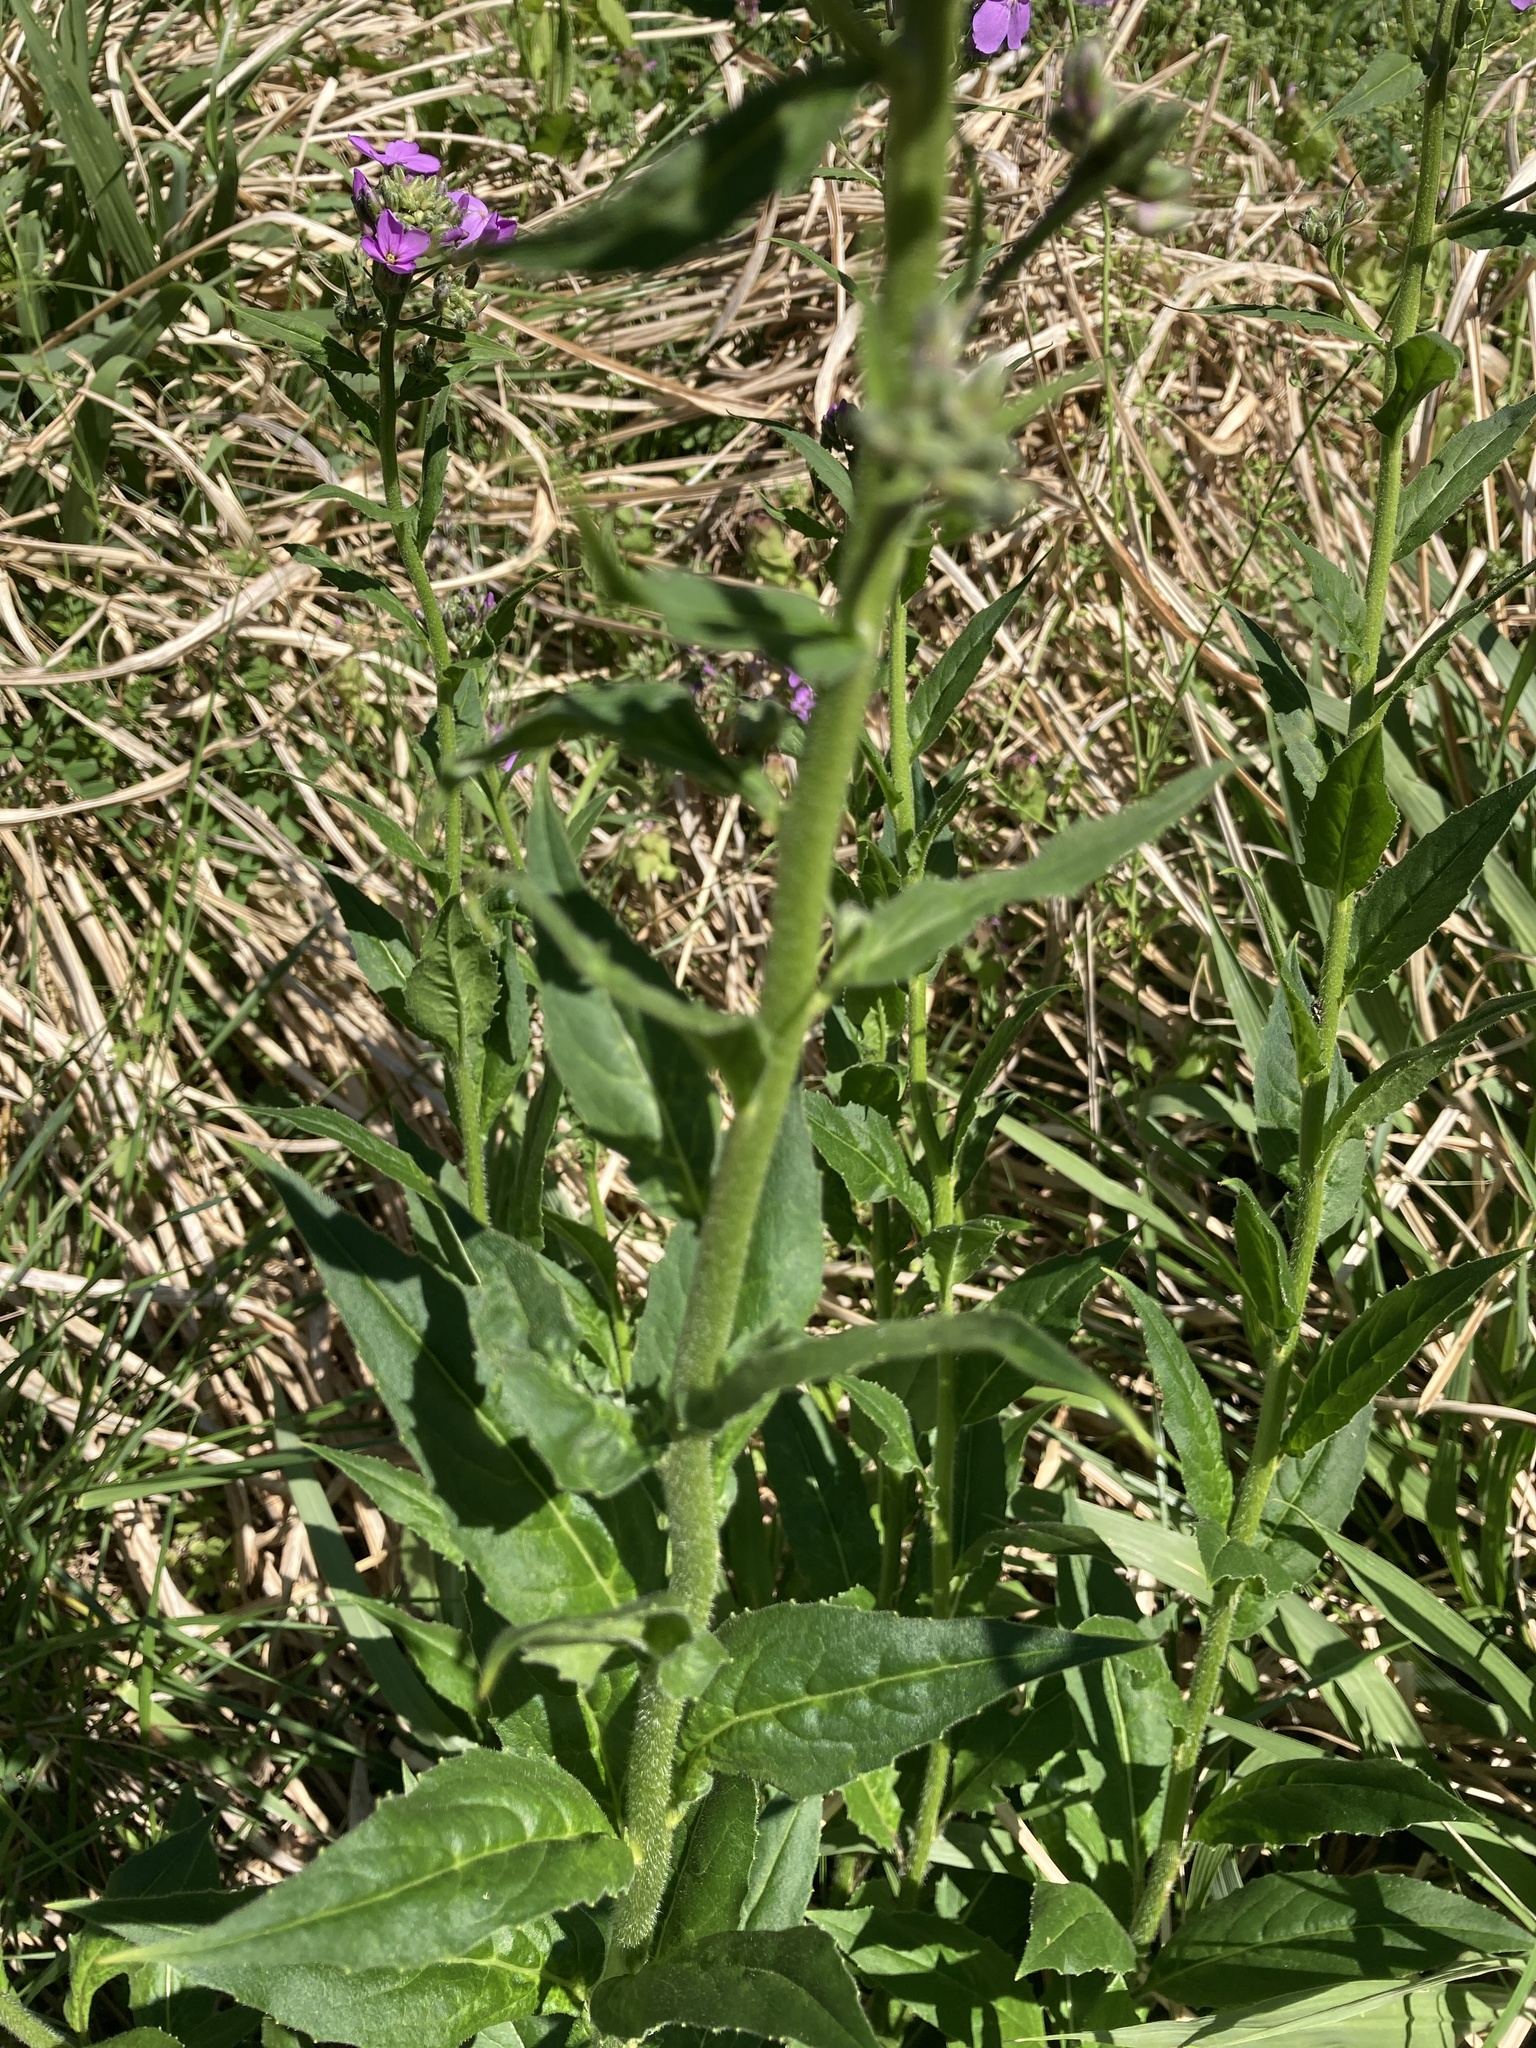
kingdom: Plantae
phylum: Tracheophyta
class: Magnoliopsida
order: Brassicales
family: Brassicaceae
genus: Hesperis
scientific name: Hesperis matronalis
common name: Dame's-violet
